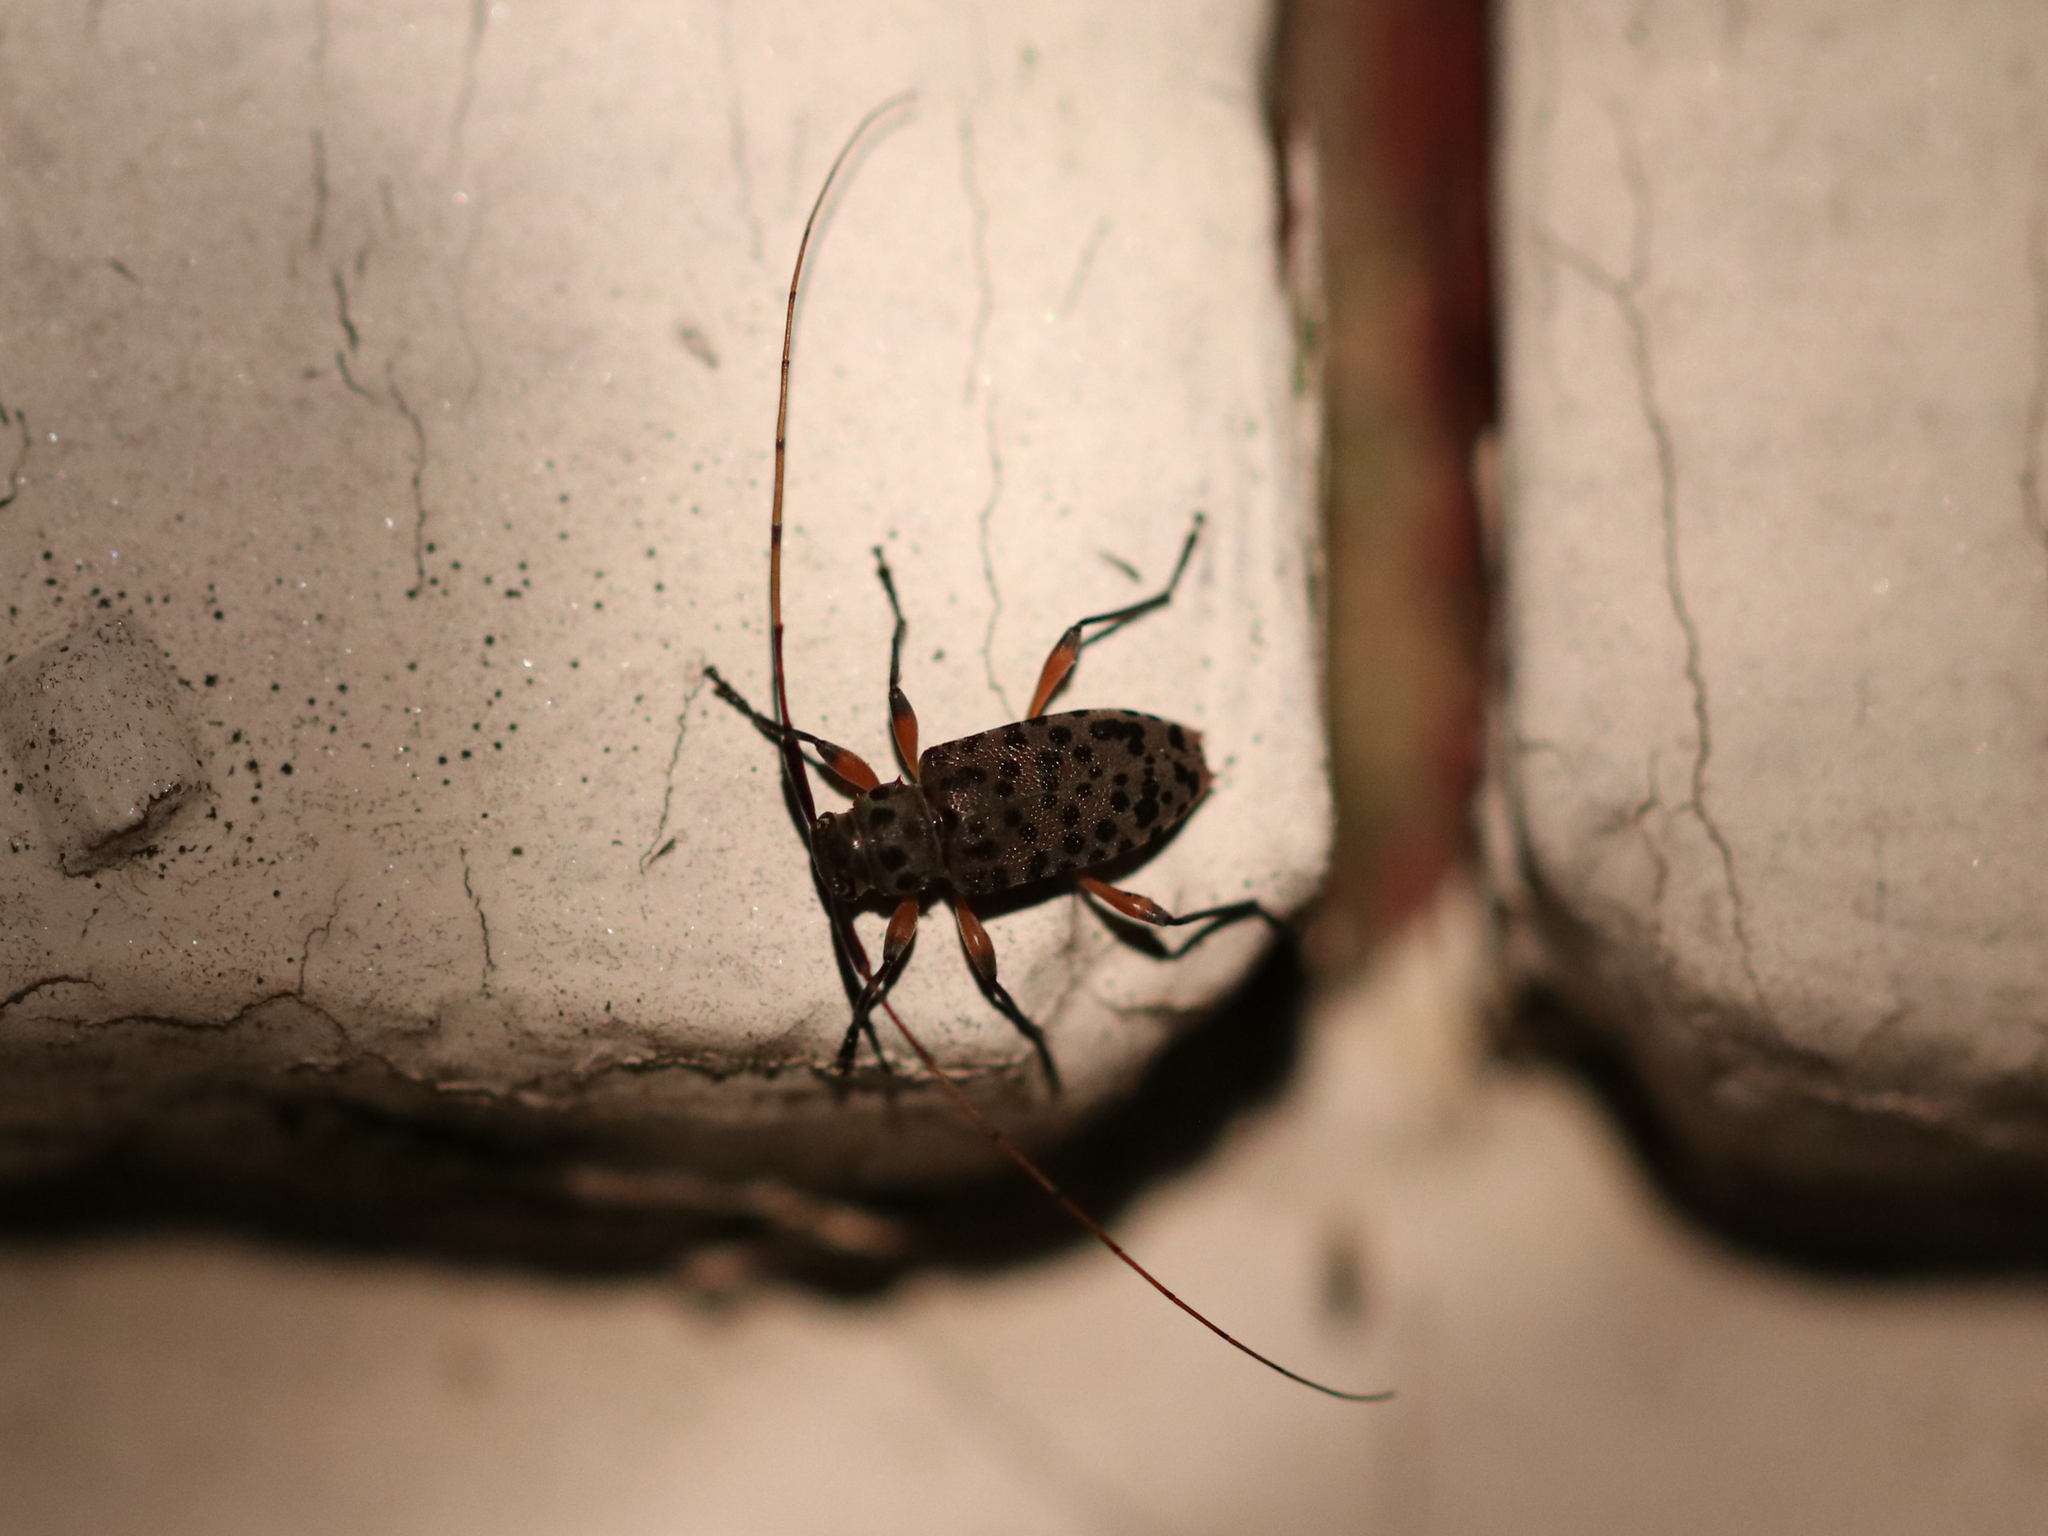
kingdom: Animalia
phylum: Arthropoda
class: Insecta
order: Coleoptera
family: Cerambycidae
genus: Hyperplatys
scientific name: Hyperplatys aspersa
